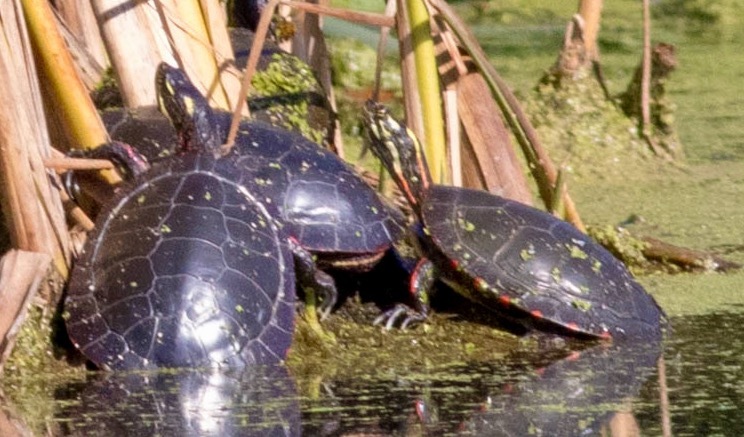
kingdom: Animalia
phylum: Chordata
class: Testudines
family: Emydidae
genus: Chrysemys
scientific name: Chrysemys picta
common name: Painted turtle
